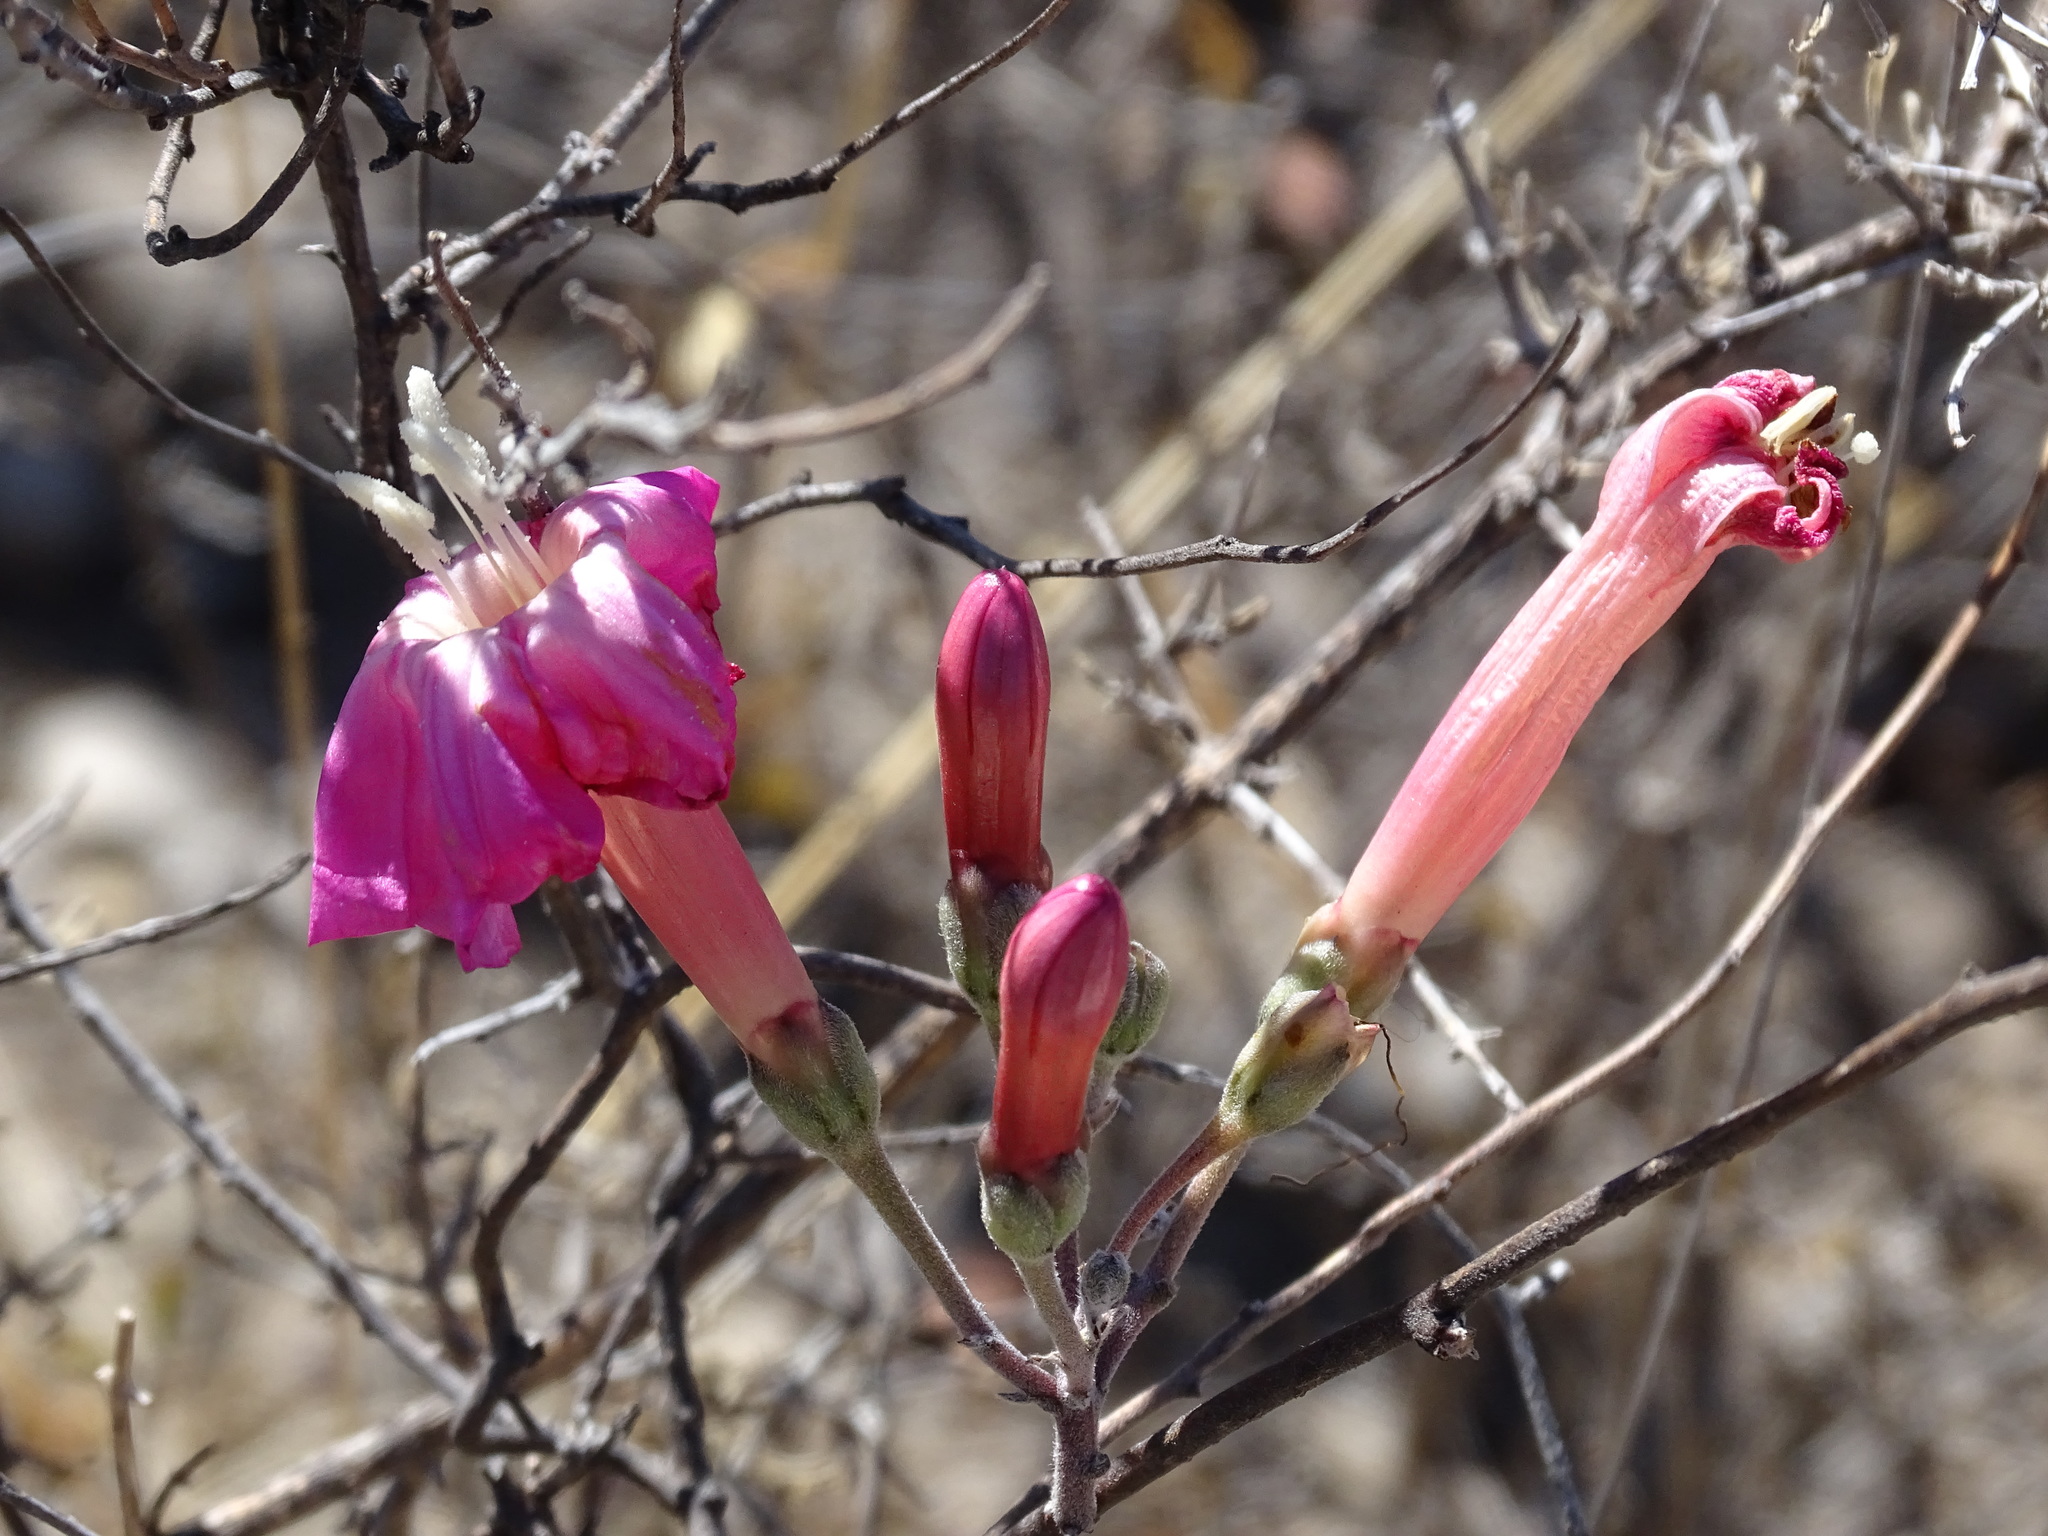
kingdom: Plantae
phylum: Tracheophyta
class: Magnoliopsida
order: Solanales
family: Convolvulaceae
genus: Ipomoea
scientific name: Ipomoea conzattii
